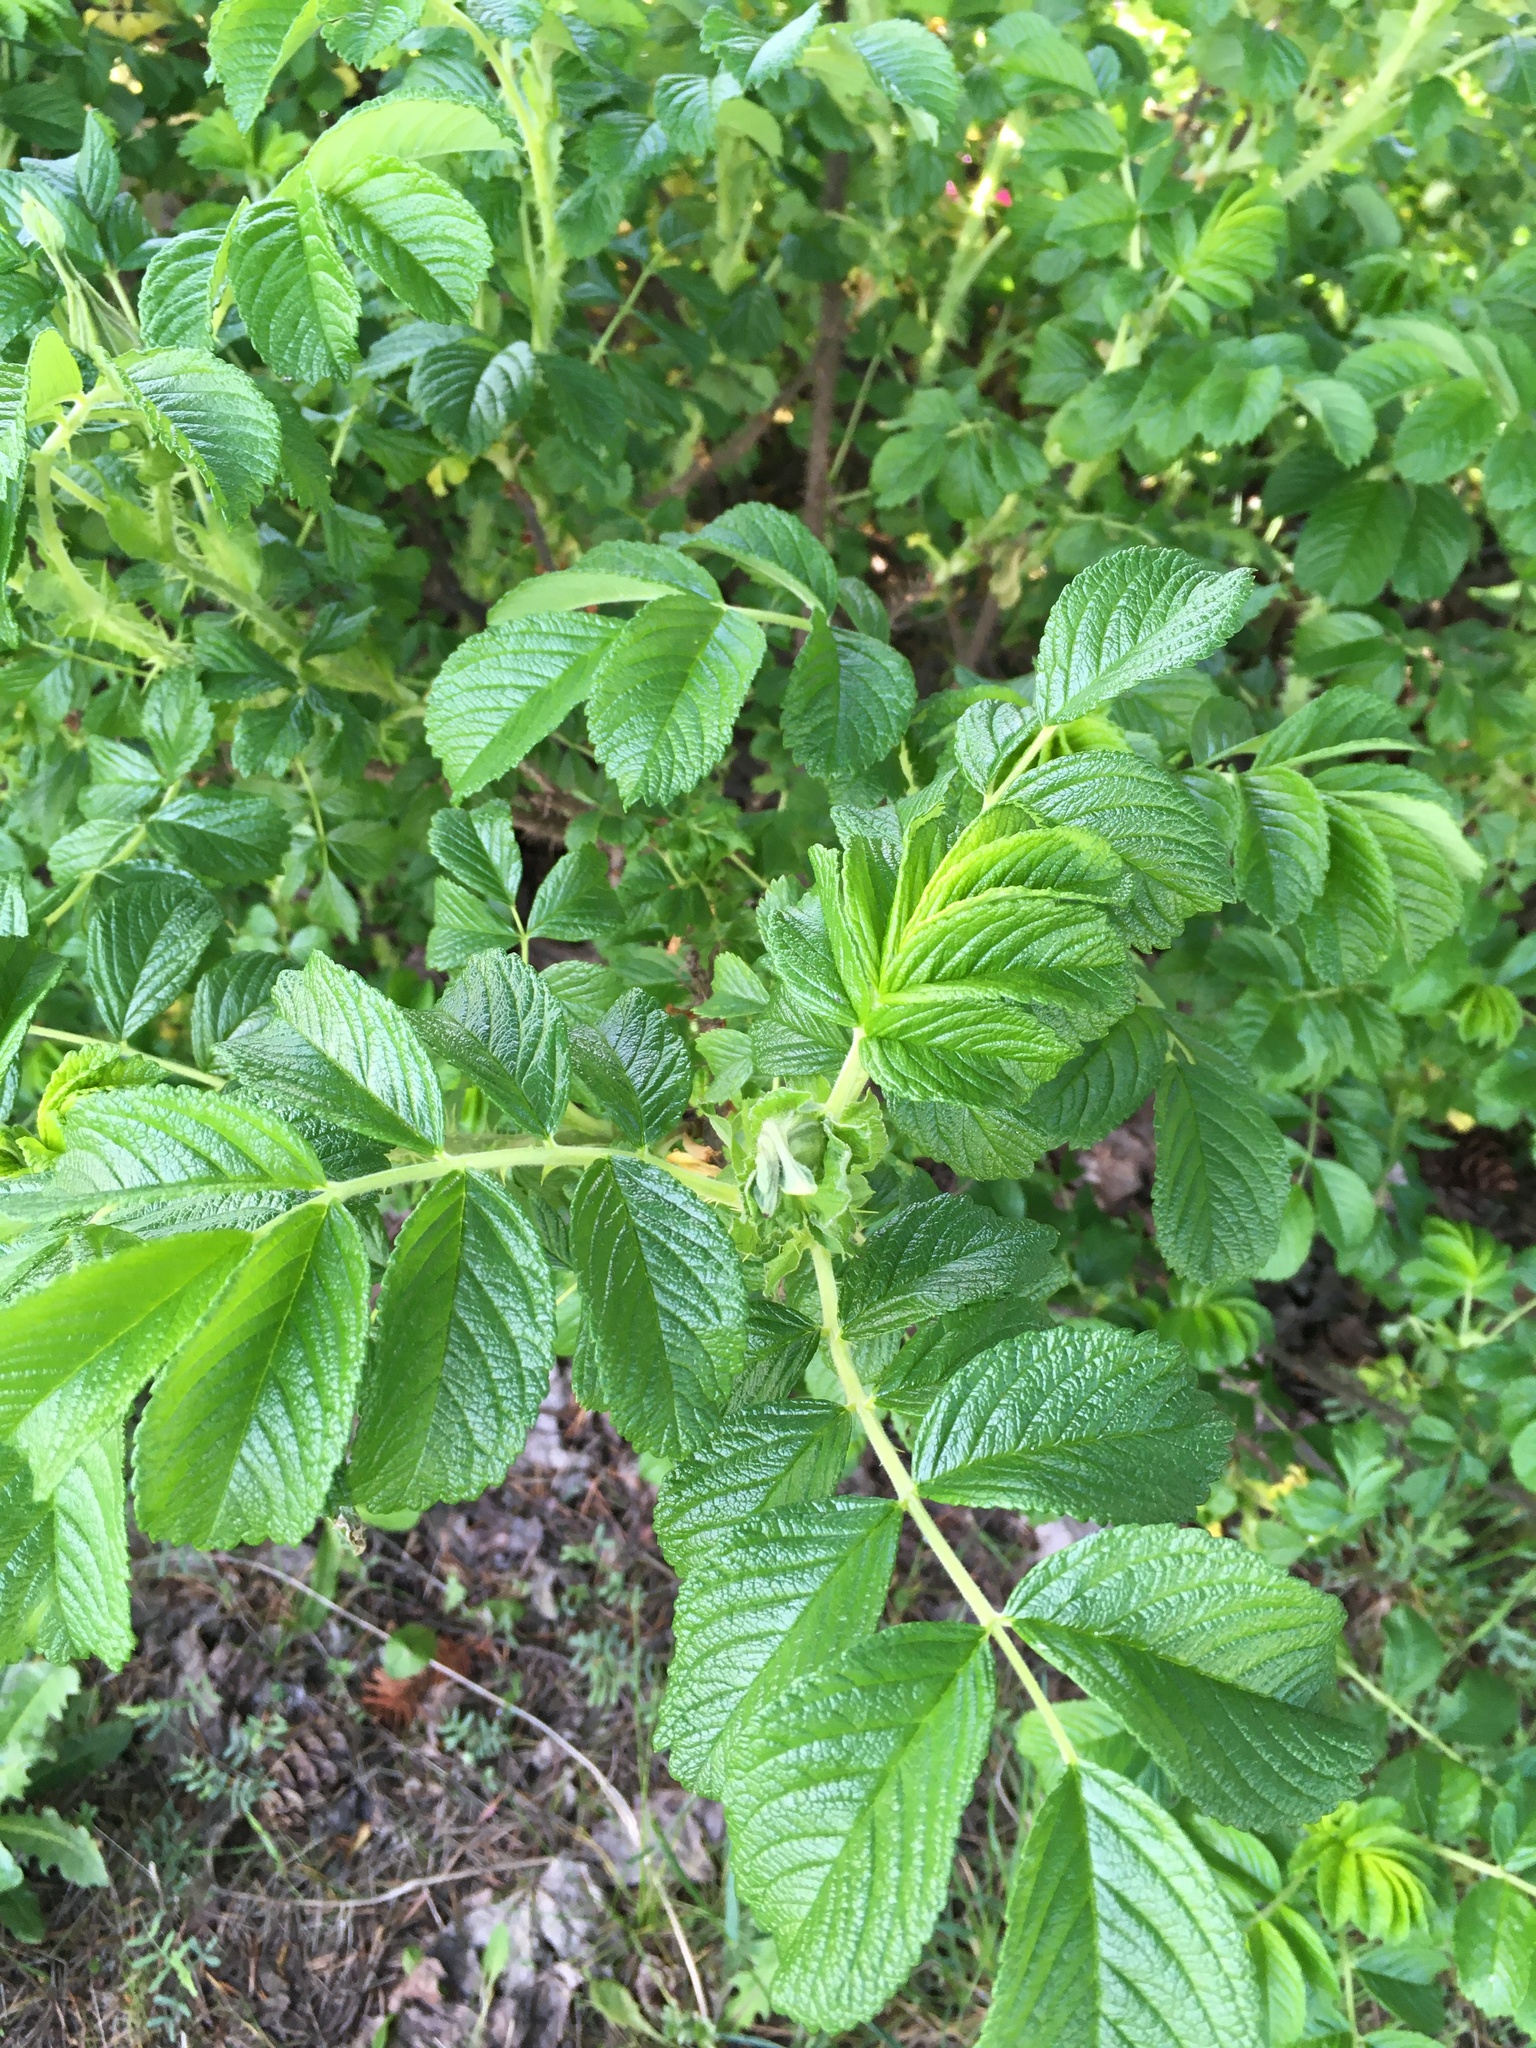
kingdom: Plantae
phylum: Tracheophyta
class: Magnoliopsida
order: Rosales
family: Rosaceae
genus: Rosa
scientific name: Rosa rugosa
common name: Japanese rose
